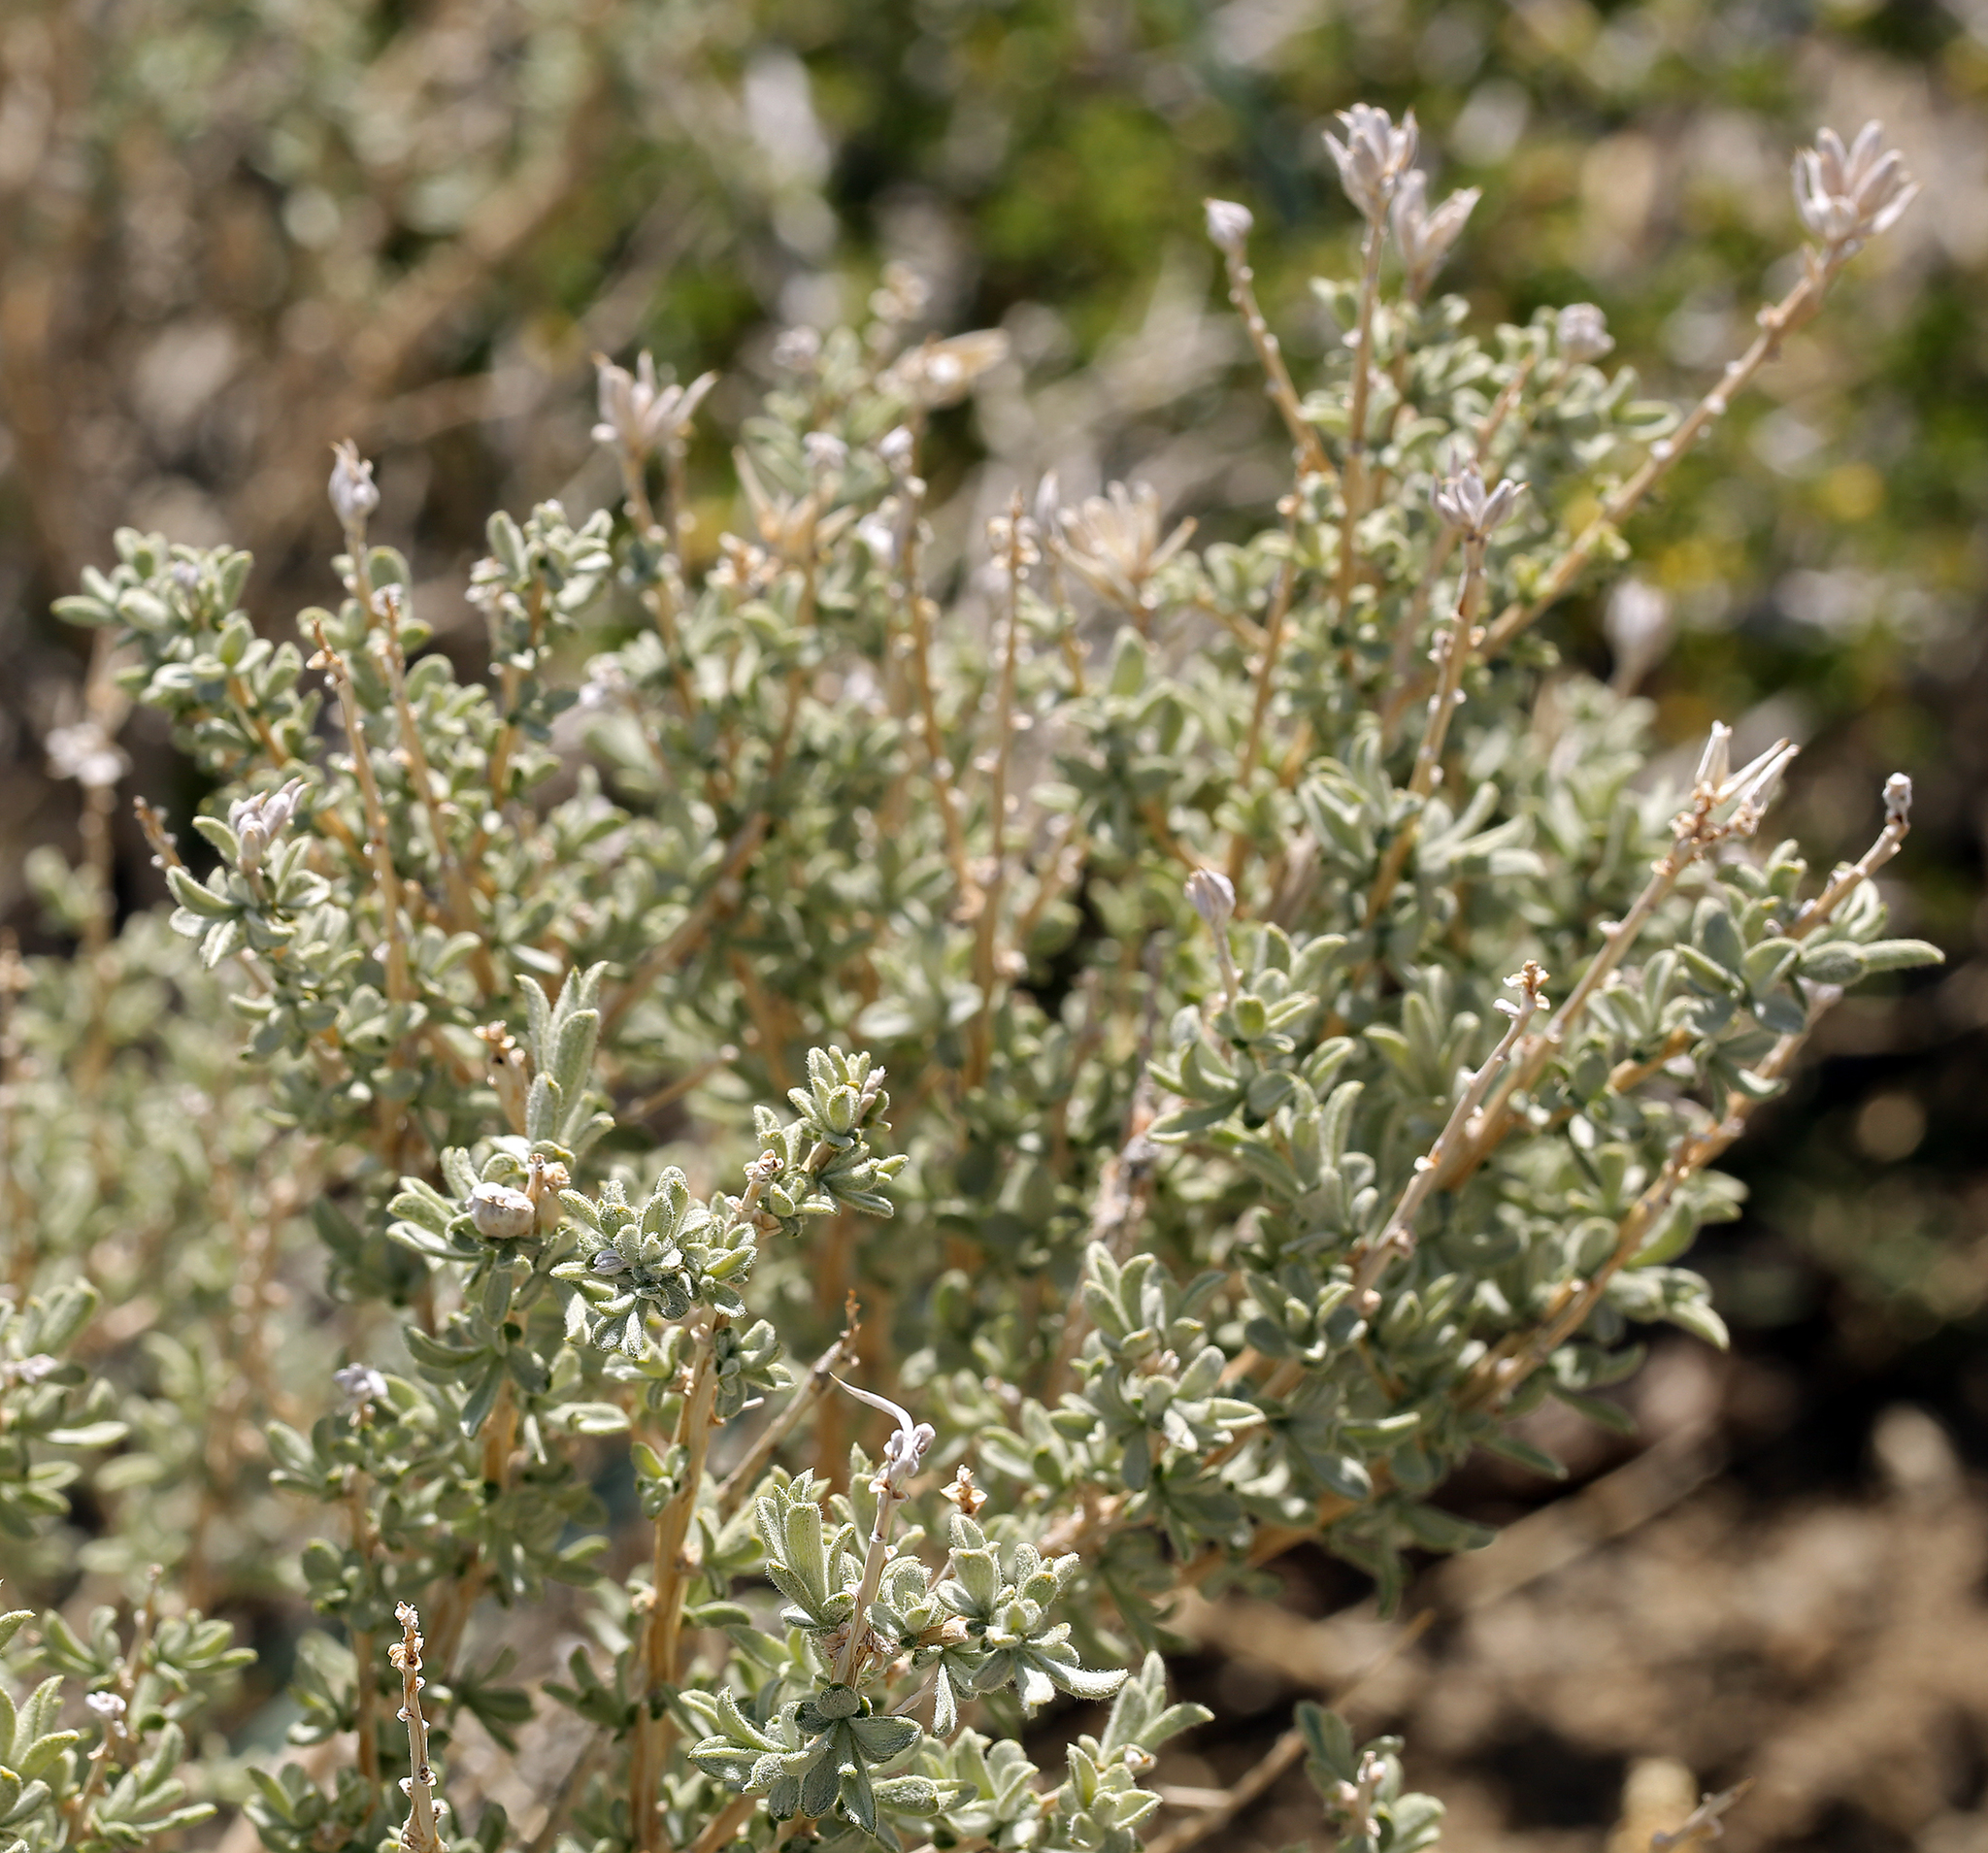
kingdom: Plantae
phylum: Tracheophyta
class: Magnoliopsida
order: Asterales
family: Asteraceae
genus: Tetradymia
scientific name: Tetradymia canescens
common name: Spineless horsebrush
